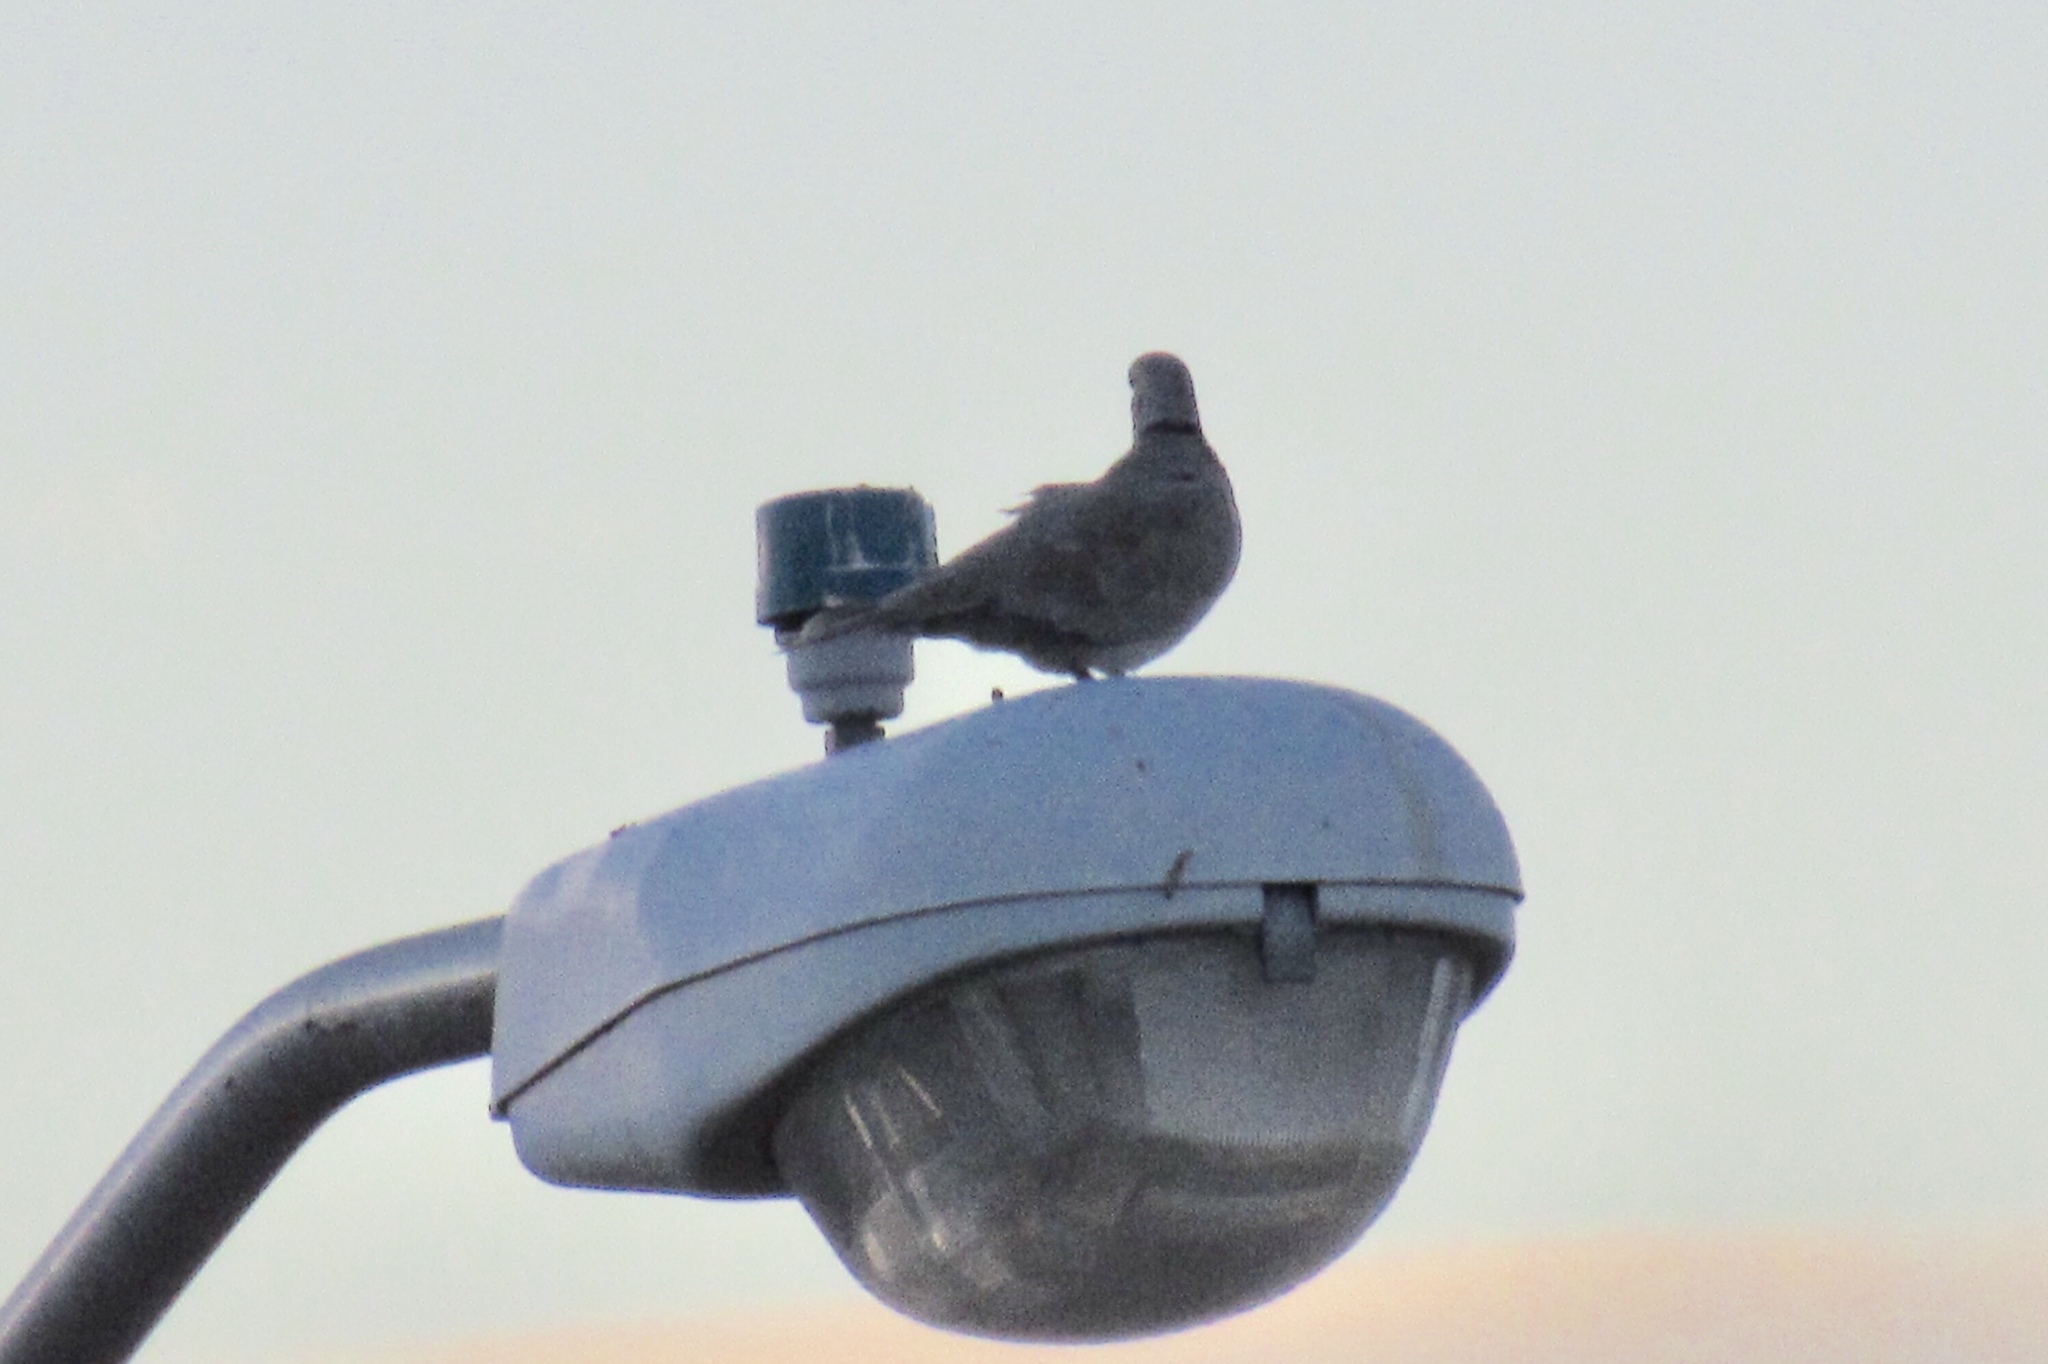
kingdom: Animalia
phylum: Chordata
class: Aves
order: Columbiformes
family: Columbidae
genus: Streptopelia
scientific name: Streptopelia decaocto
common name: Eurasian collared dove
